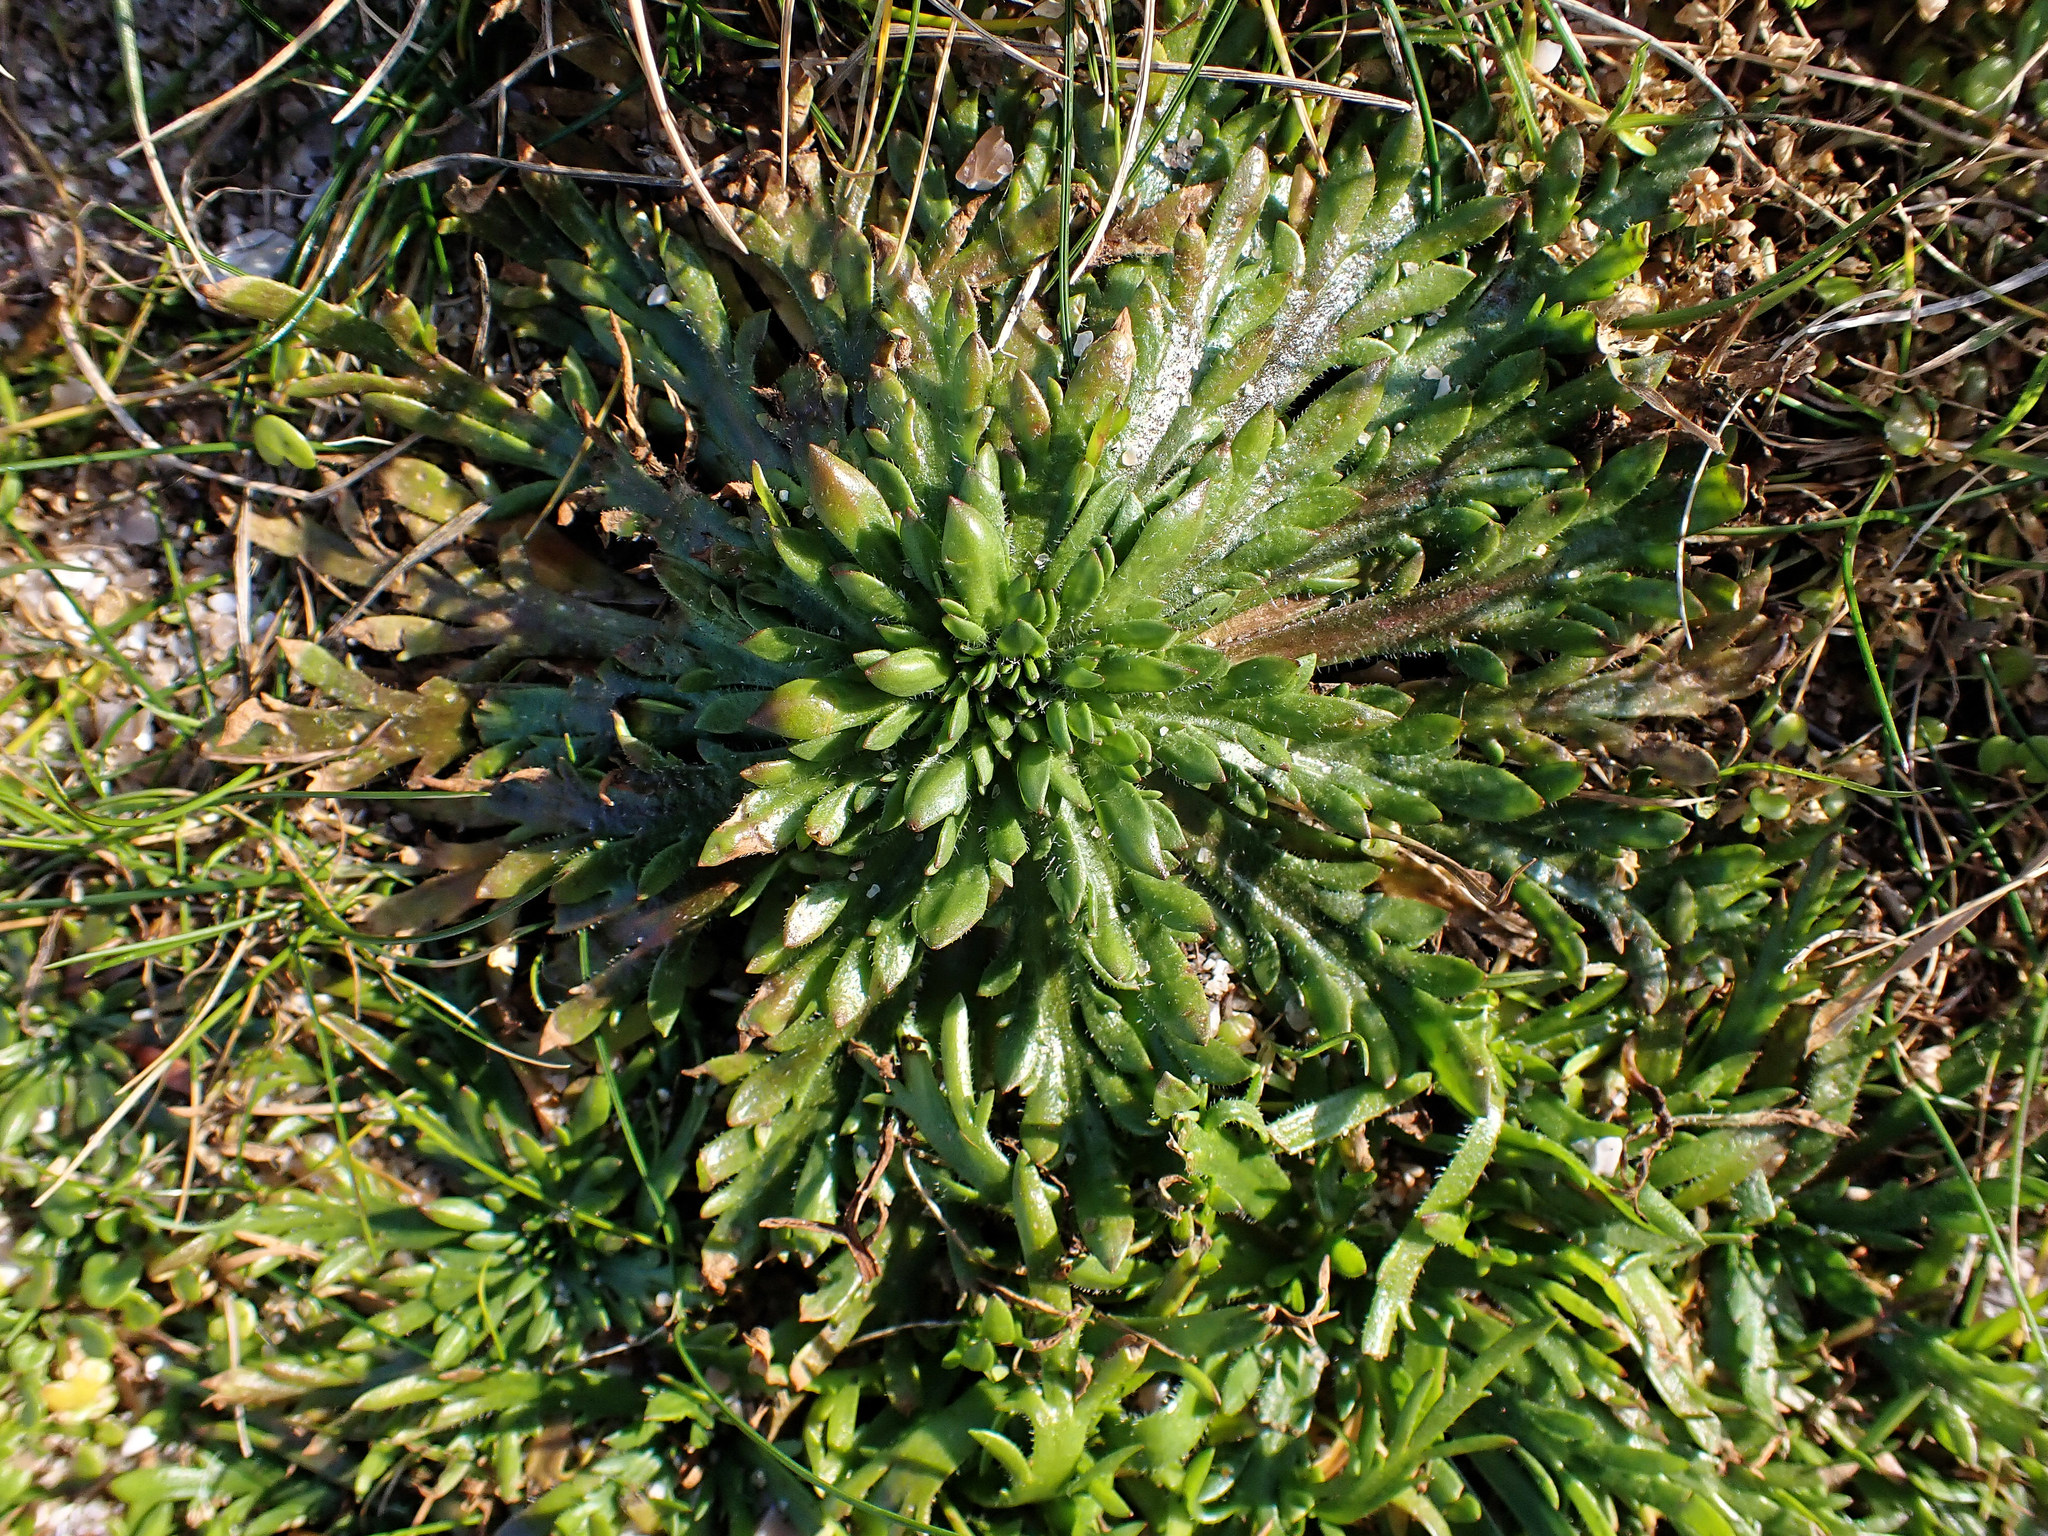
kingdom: Plantae
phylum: Tracheophyta
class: Magnoliopsida
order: Lamiales
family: Plantaginaceae
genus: Plantago
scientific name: Plantago coronopus
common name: Buck's-horn plantain
